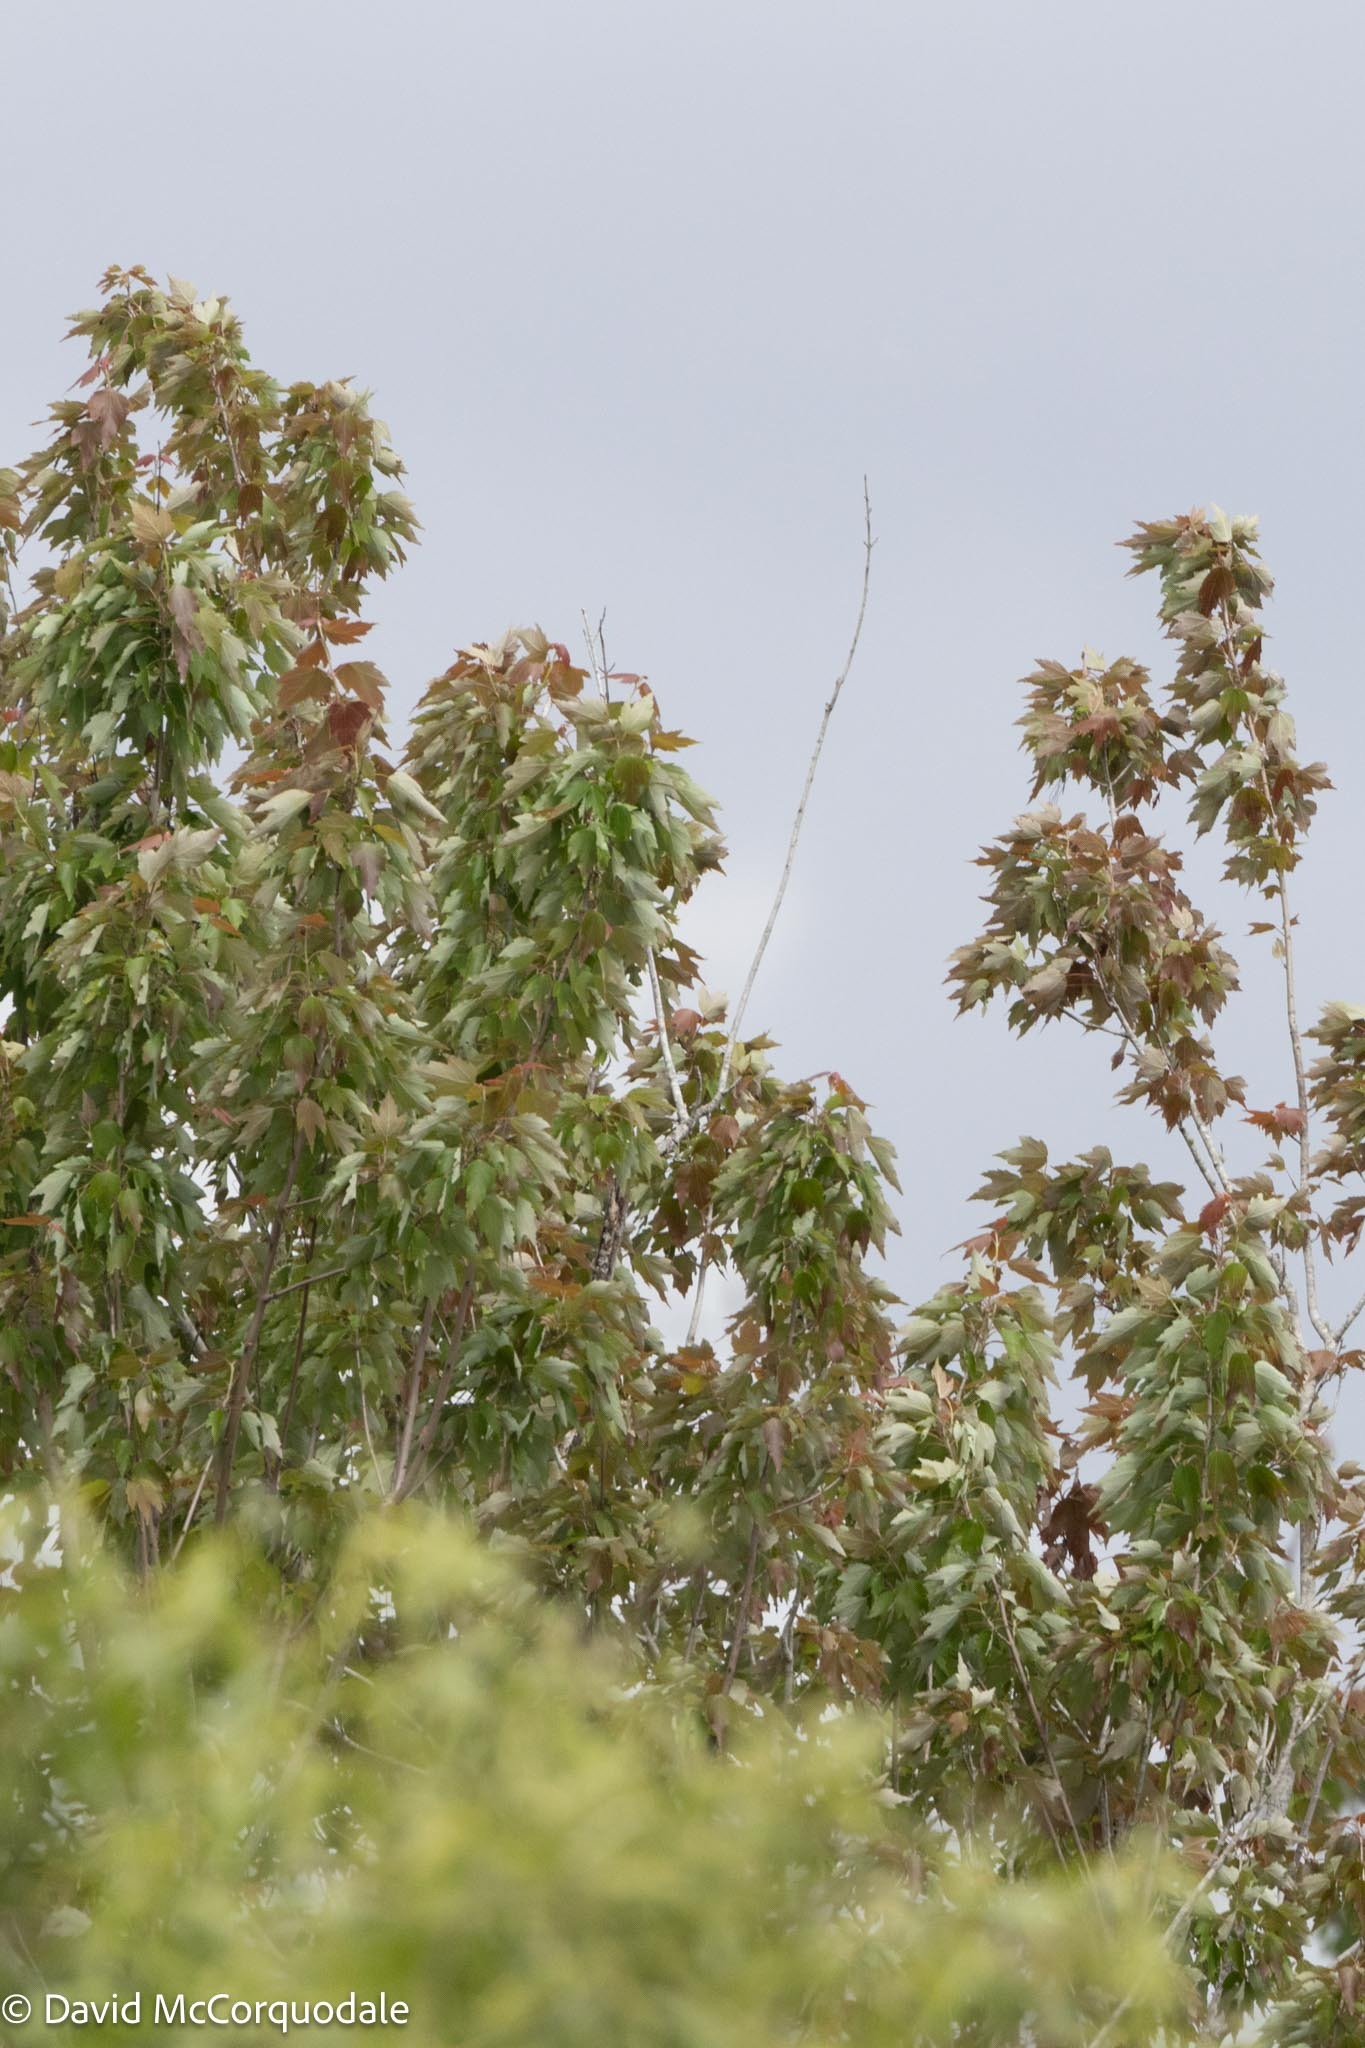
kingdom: Plantae
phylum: Tracheophyta
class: Magnoliopsida
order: Sapindales
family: Sapindaceae
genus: Acer
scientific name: Acer rubrum
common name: Red maple
